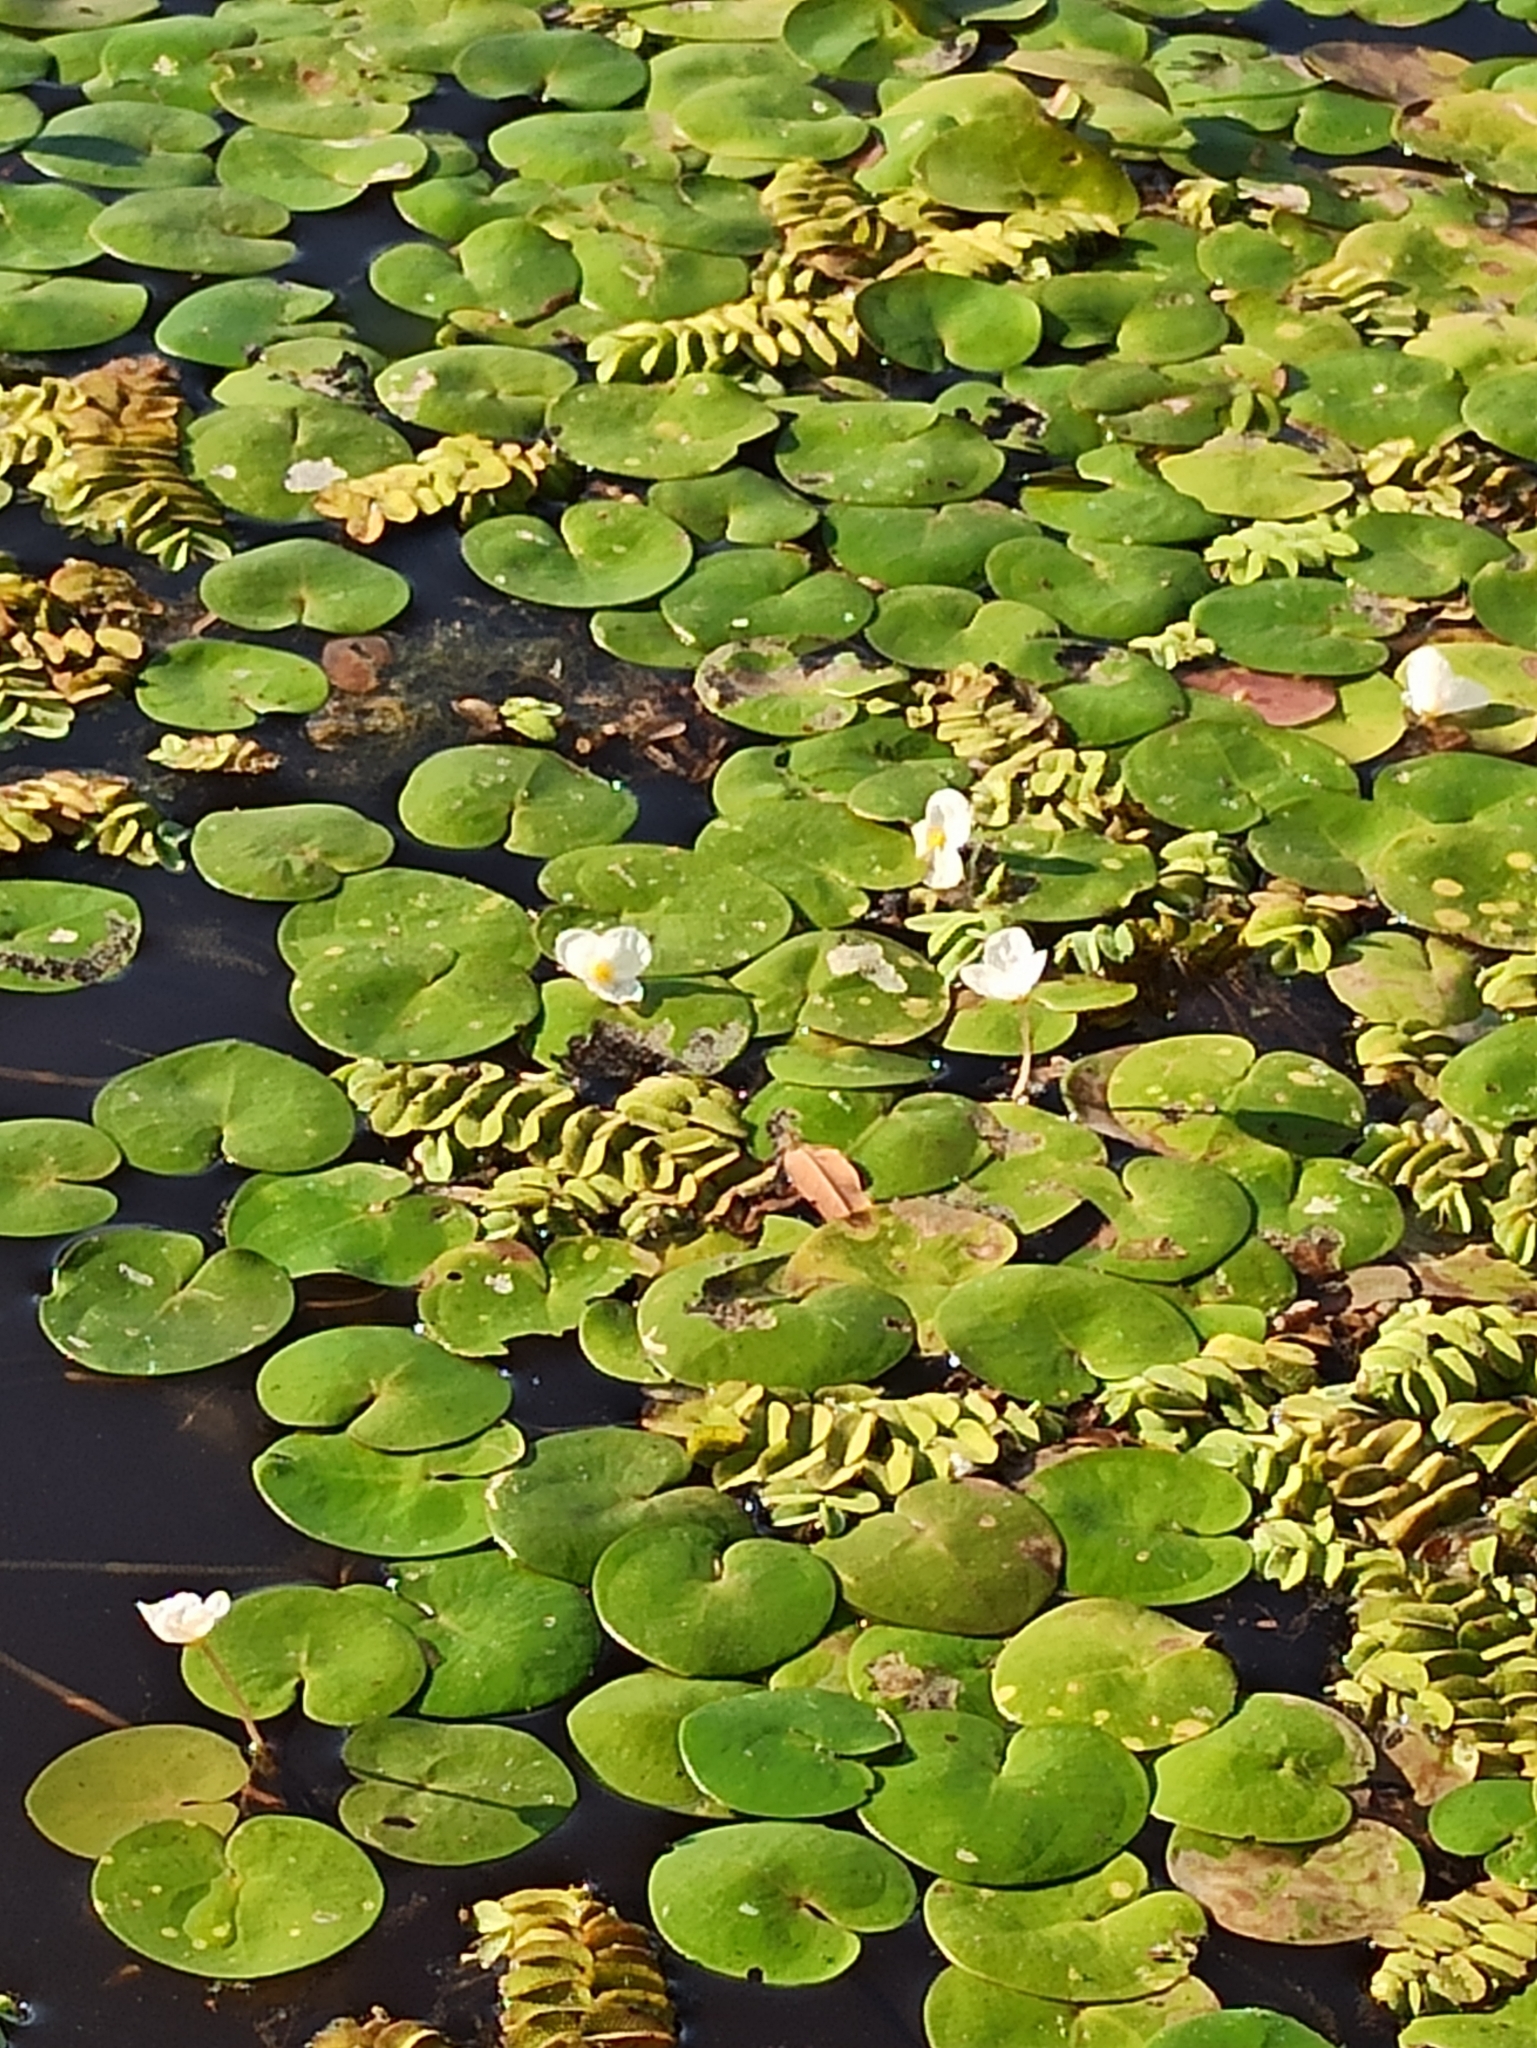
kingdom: Plantae
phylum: Tracheophyta
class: Polypodiopsida
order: Salviniales
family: Salviniaceae
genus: Salvinia
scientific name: Salvinia natans
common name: Floating fern
